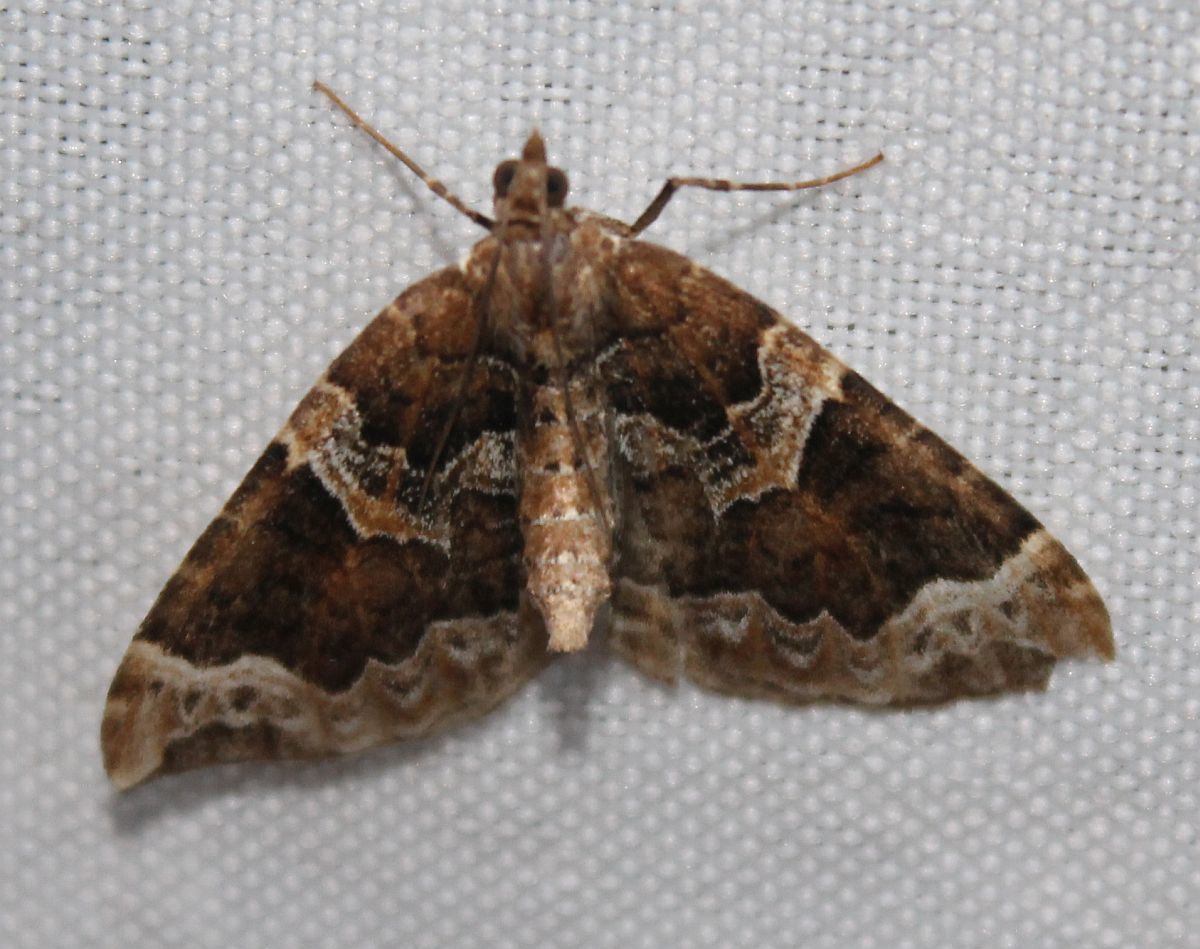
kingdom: Animalia
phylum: Arthropoda
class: Insecta
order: Lepidoptera
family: Geometridae
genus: Eulithis
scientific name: Eulithis prunata
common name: Phoenix
